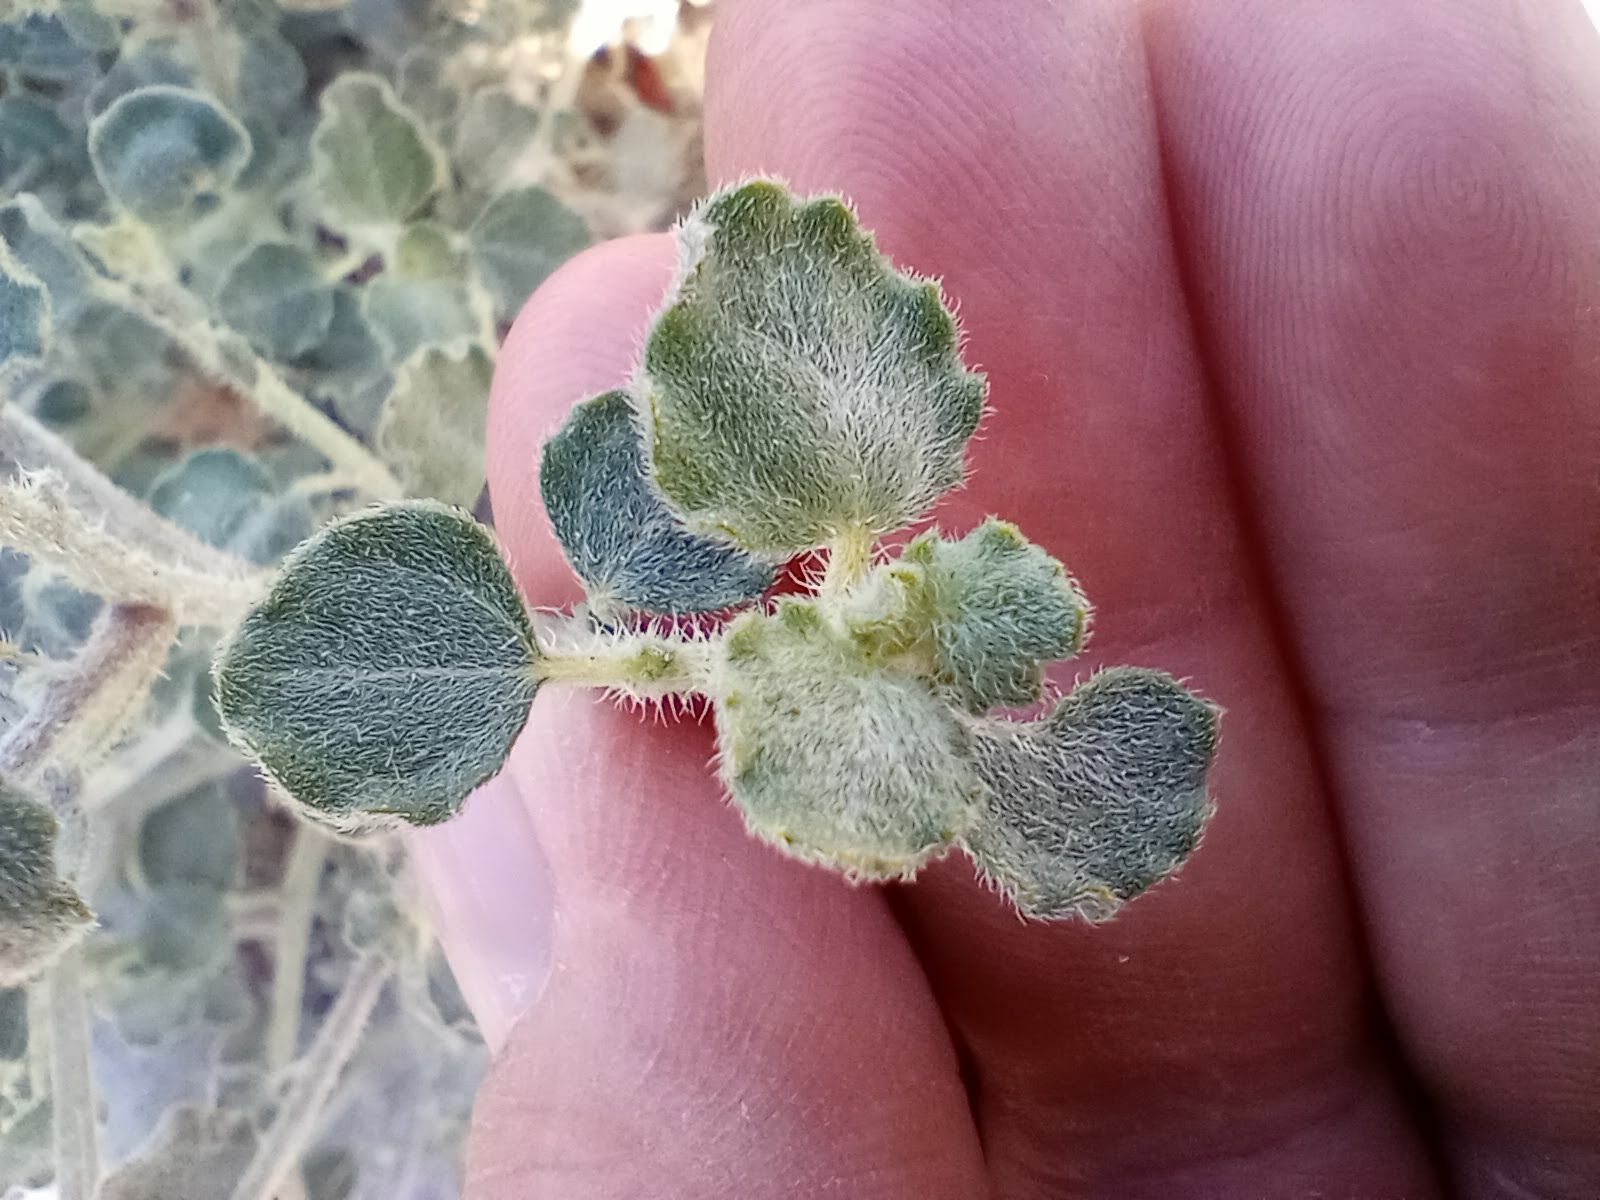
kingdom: Plantae
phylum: Tracheophyta
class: Magnoliopsida
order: Asterales
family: Asteraceae
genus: Dicoria
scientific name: Dicoria canescens
